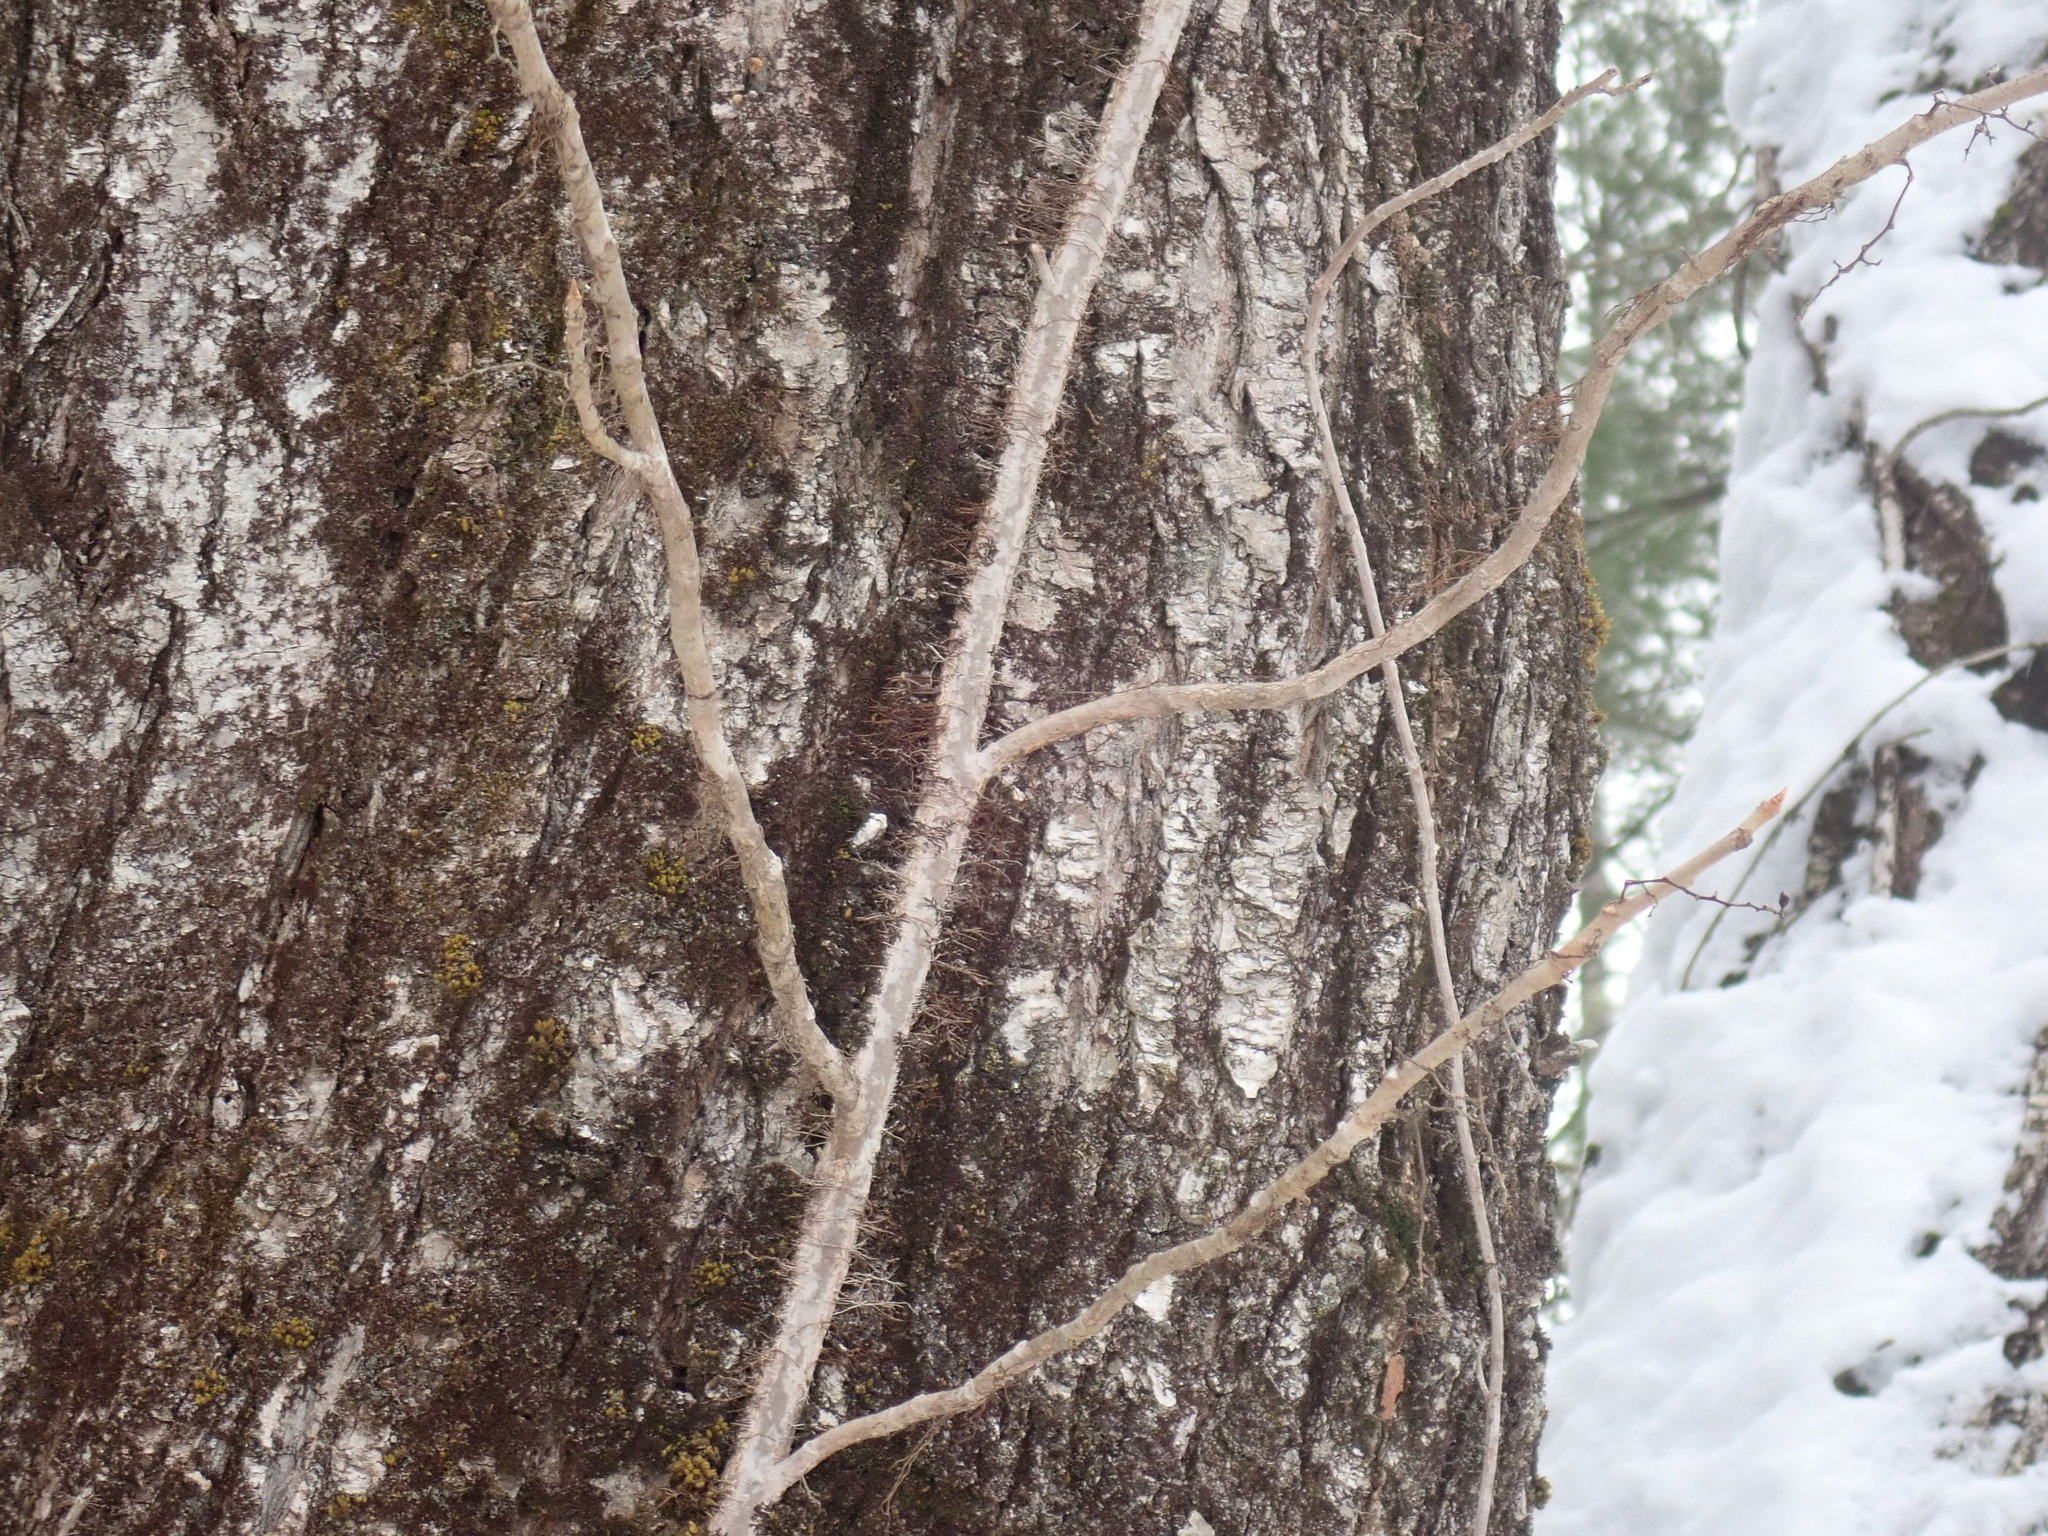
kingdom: Plantae
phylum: Tracheophyta
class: Magnoliopsida
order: Sapindales
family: Anacardiaceae
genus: Toxicodendron
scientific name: Toxicodendron radicans
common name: Poison ivy
